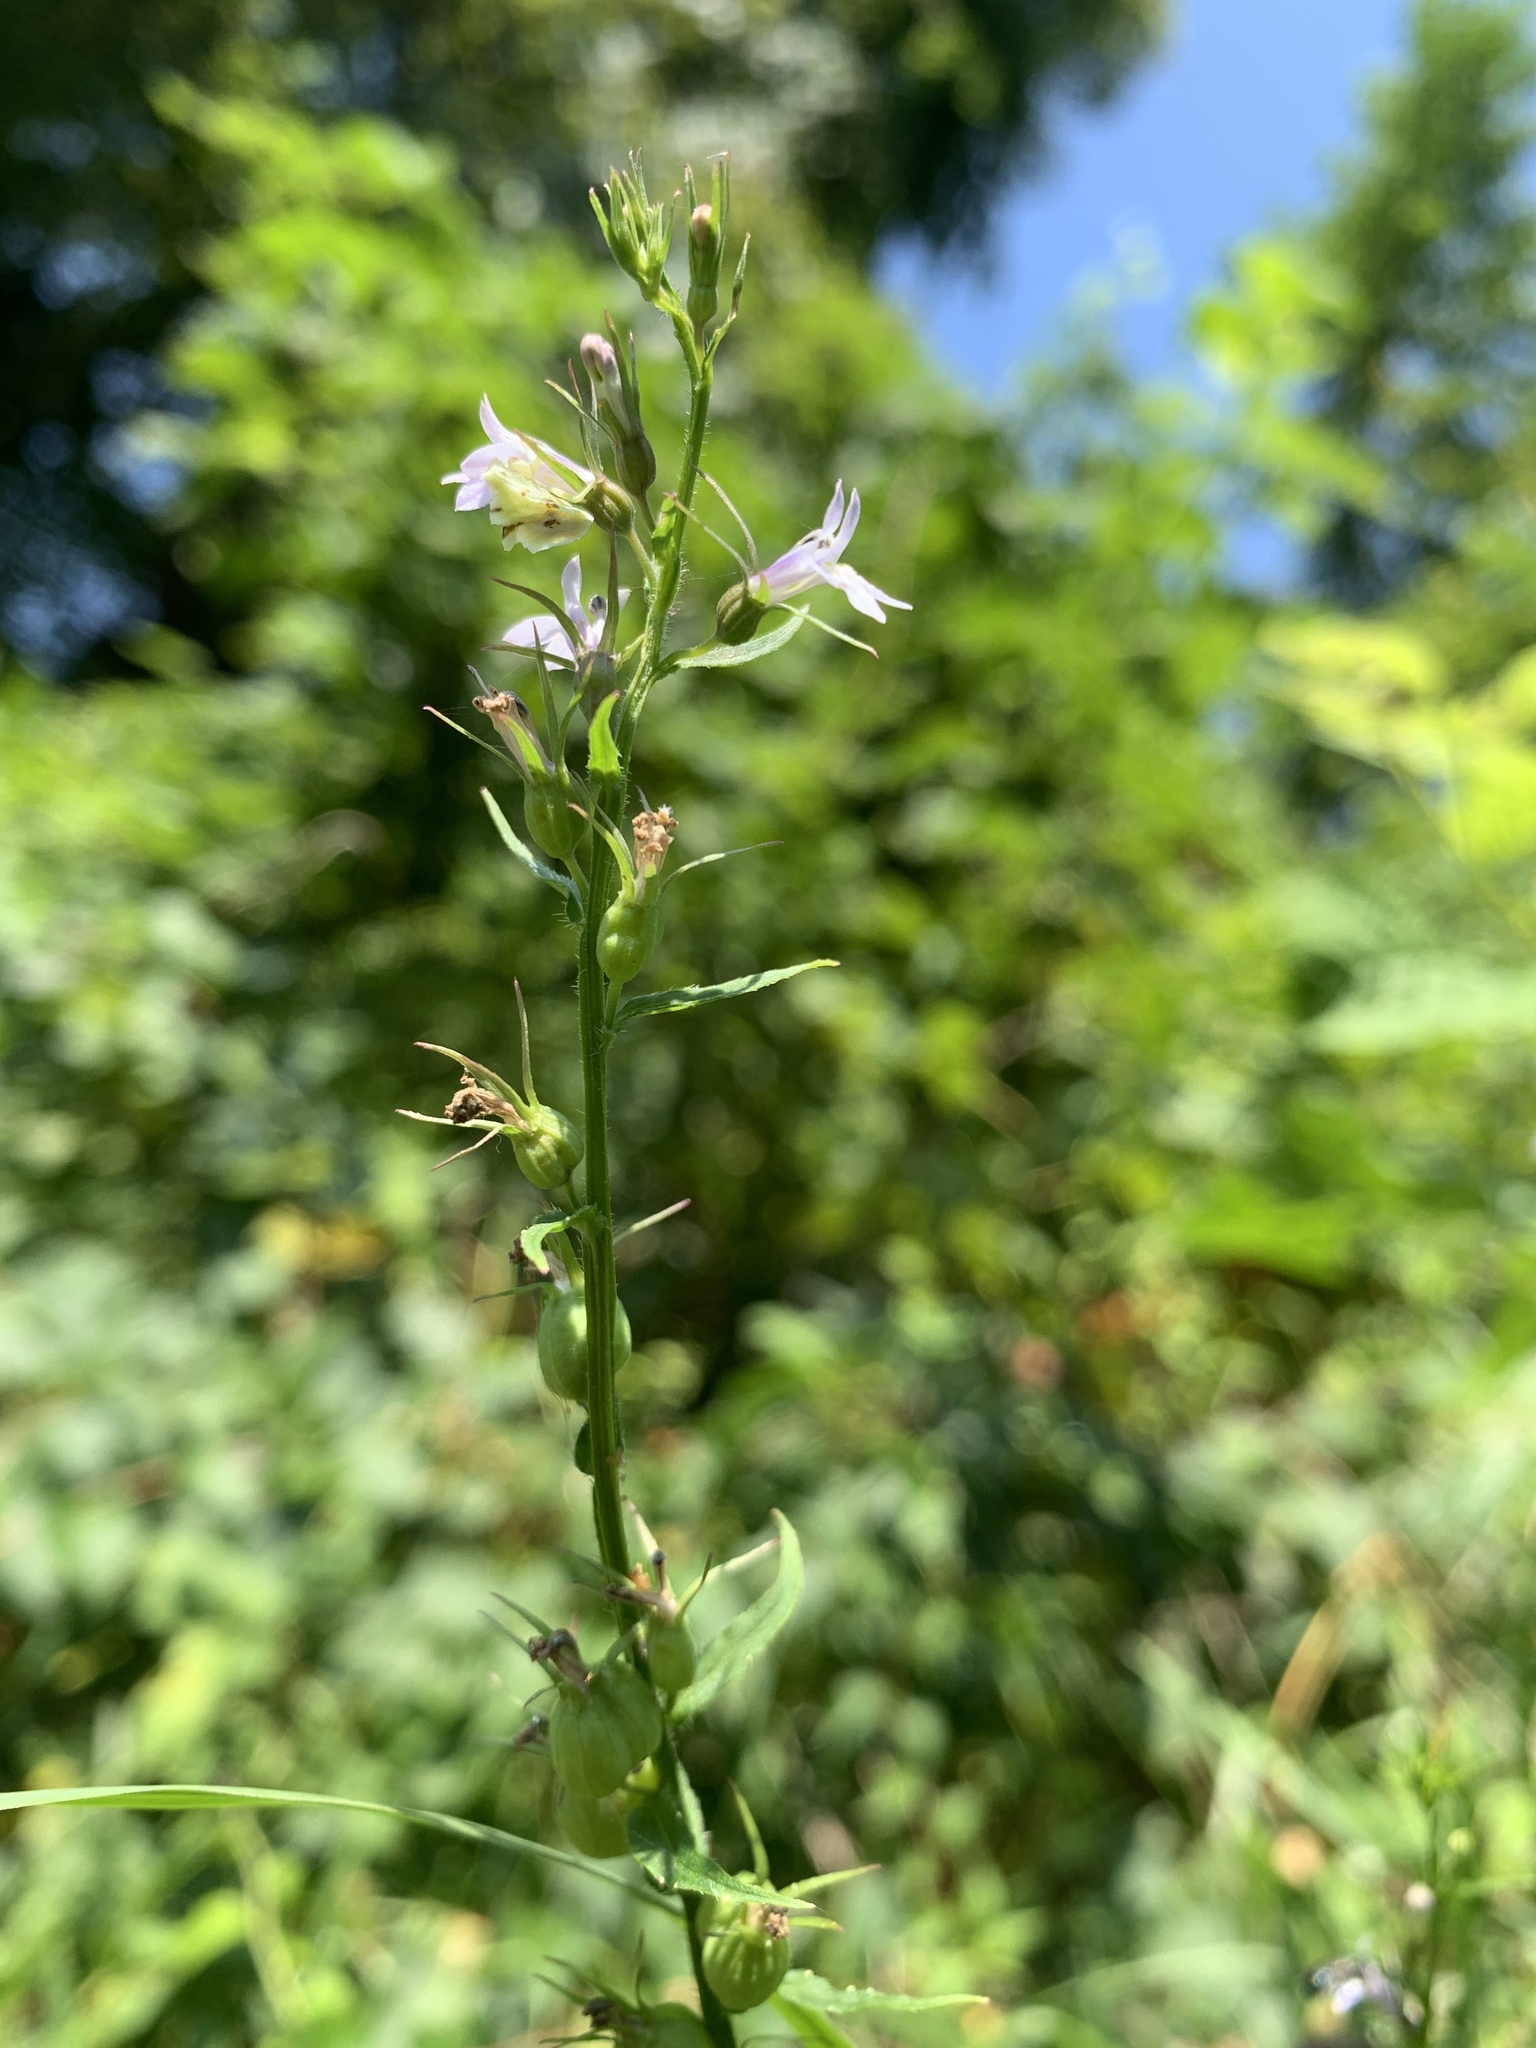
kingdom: Plantae
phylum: Tracheophyta
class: Magnoliopsida
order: Asterales
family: Campanulaceae
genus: Lobelia
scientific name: Lobelia inflata
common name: Indian tobacco
